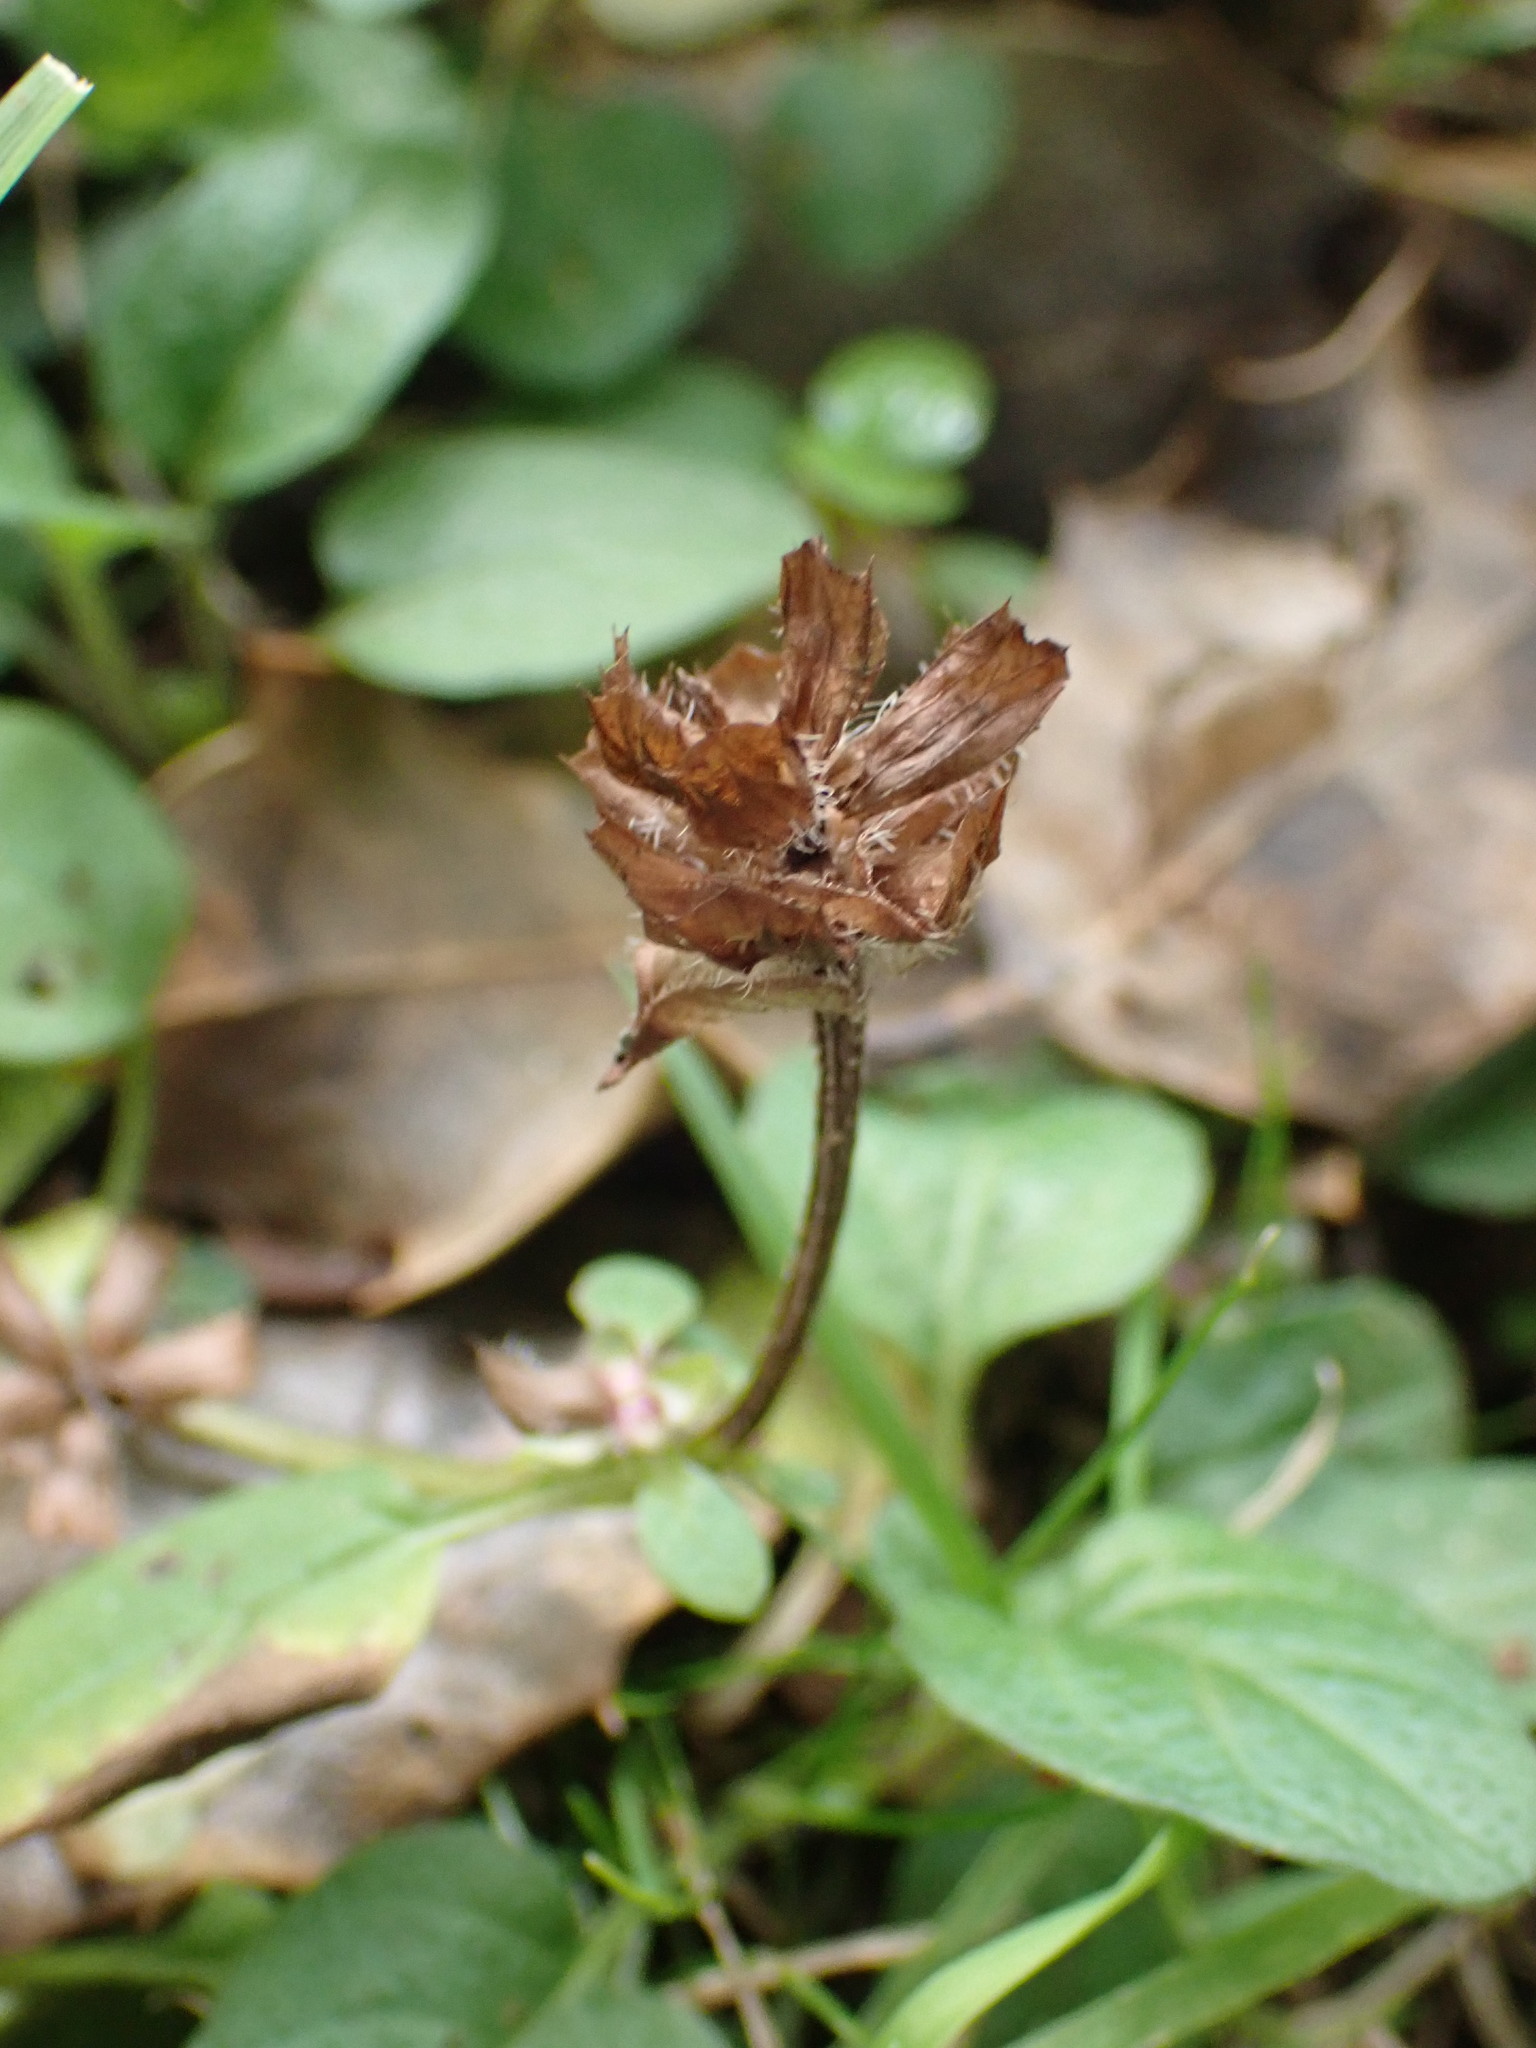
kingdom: Plantae
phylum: Tracheophyta
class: Magnoliopsida
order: Lamiales
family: Lamiaceae
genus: Prunella
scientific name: Prunella vulgaris
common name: Heal-all
